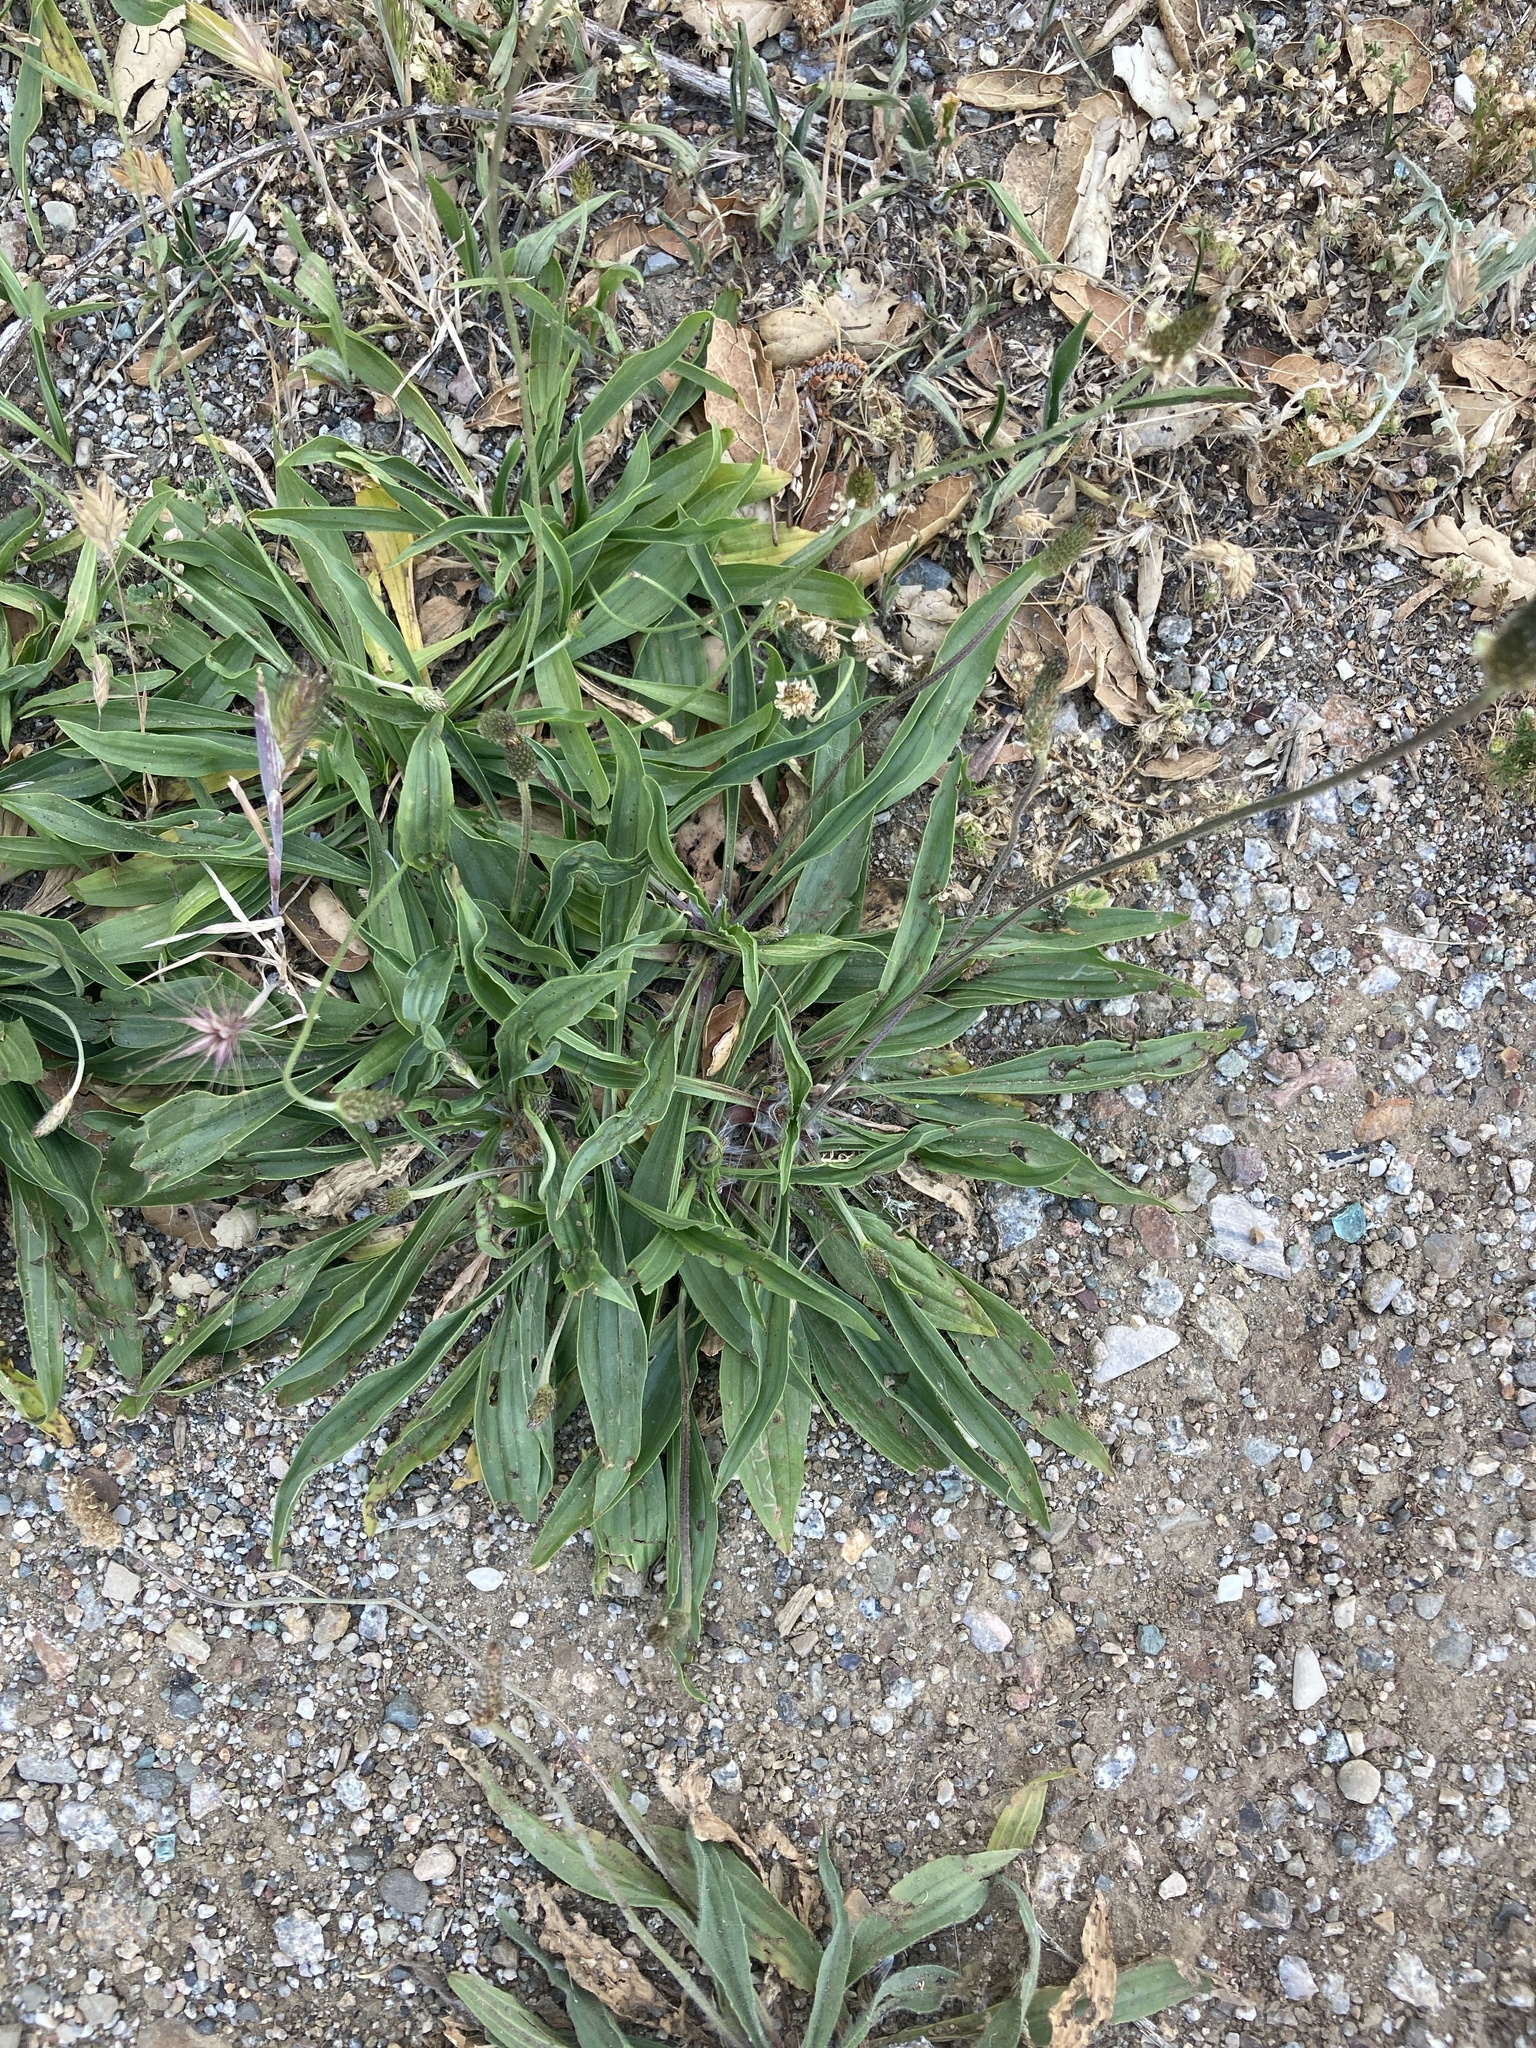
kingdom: Plantae
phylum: Tracheophyta
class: Magnoliopsida
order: Lamiales
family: Plantaginaceae
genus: Plantago
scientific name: Plantago lanceolata
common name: Ribwort plantain
